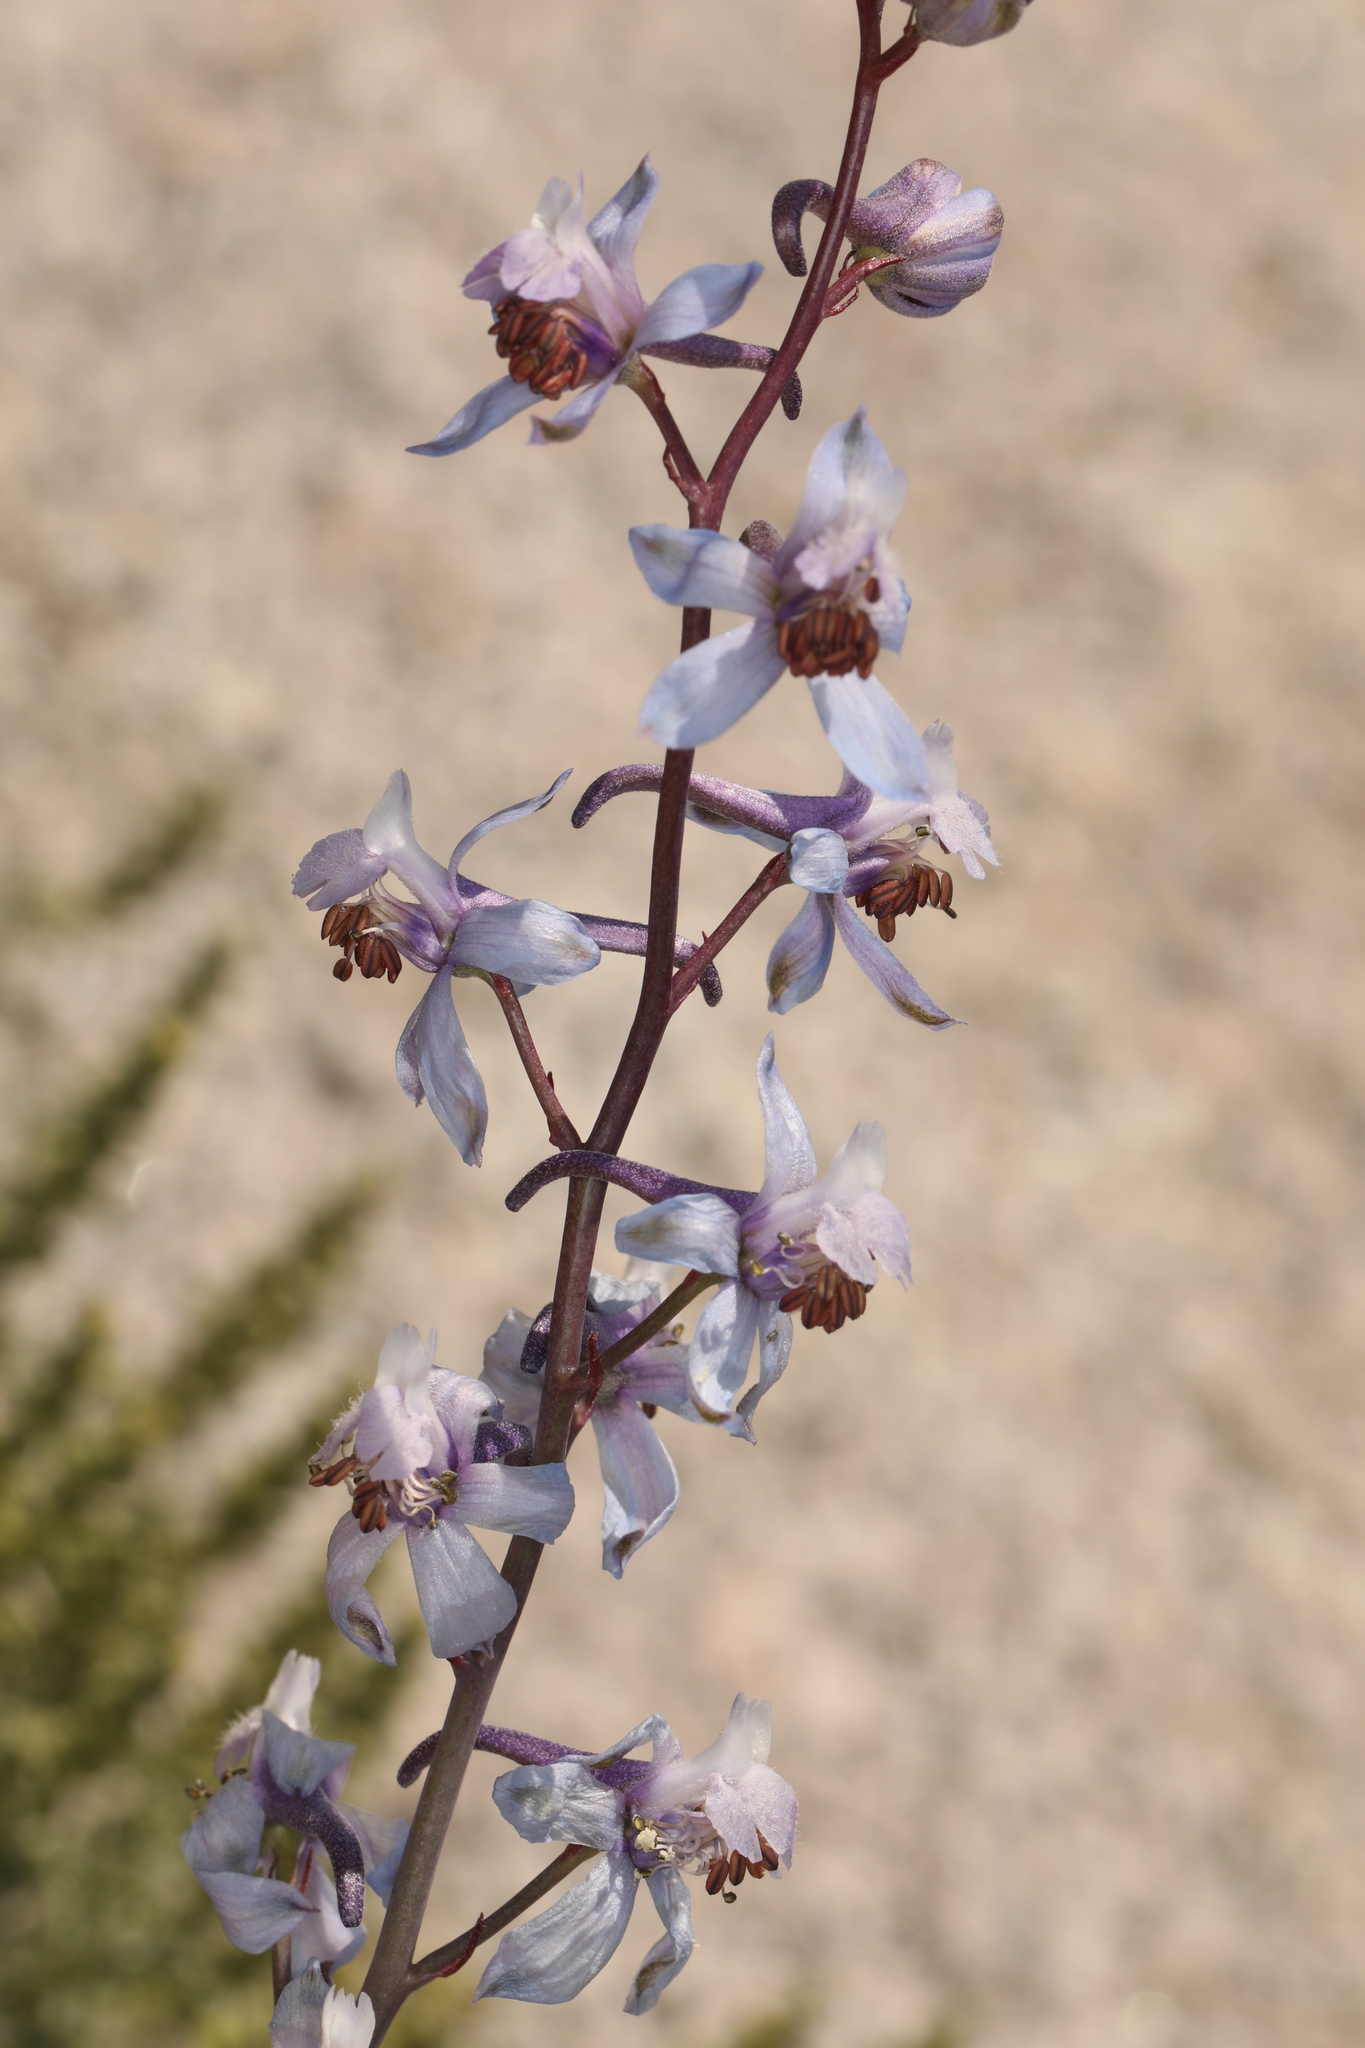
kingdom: Plantae
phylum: Tracheophyta
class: Magnoliopsida
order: Ranunculales
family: Ranunculaceae
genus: Delphinium
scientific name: Delphinium parishii
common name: Apache larkspur
